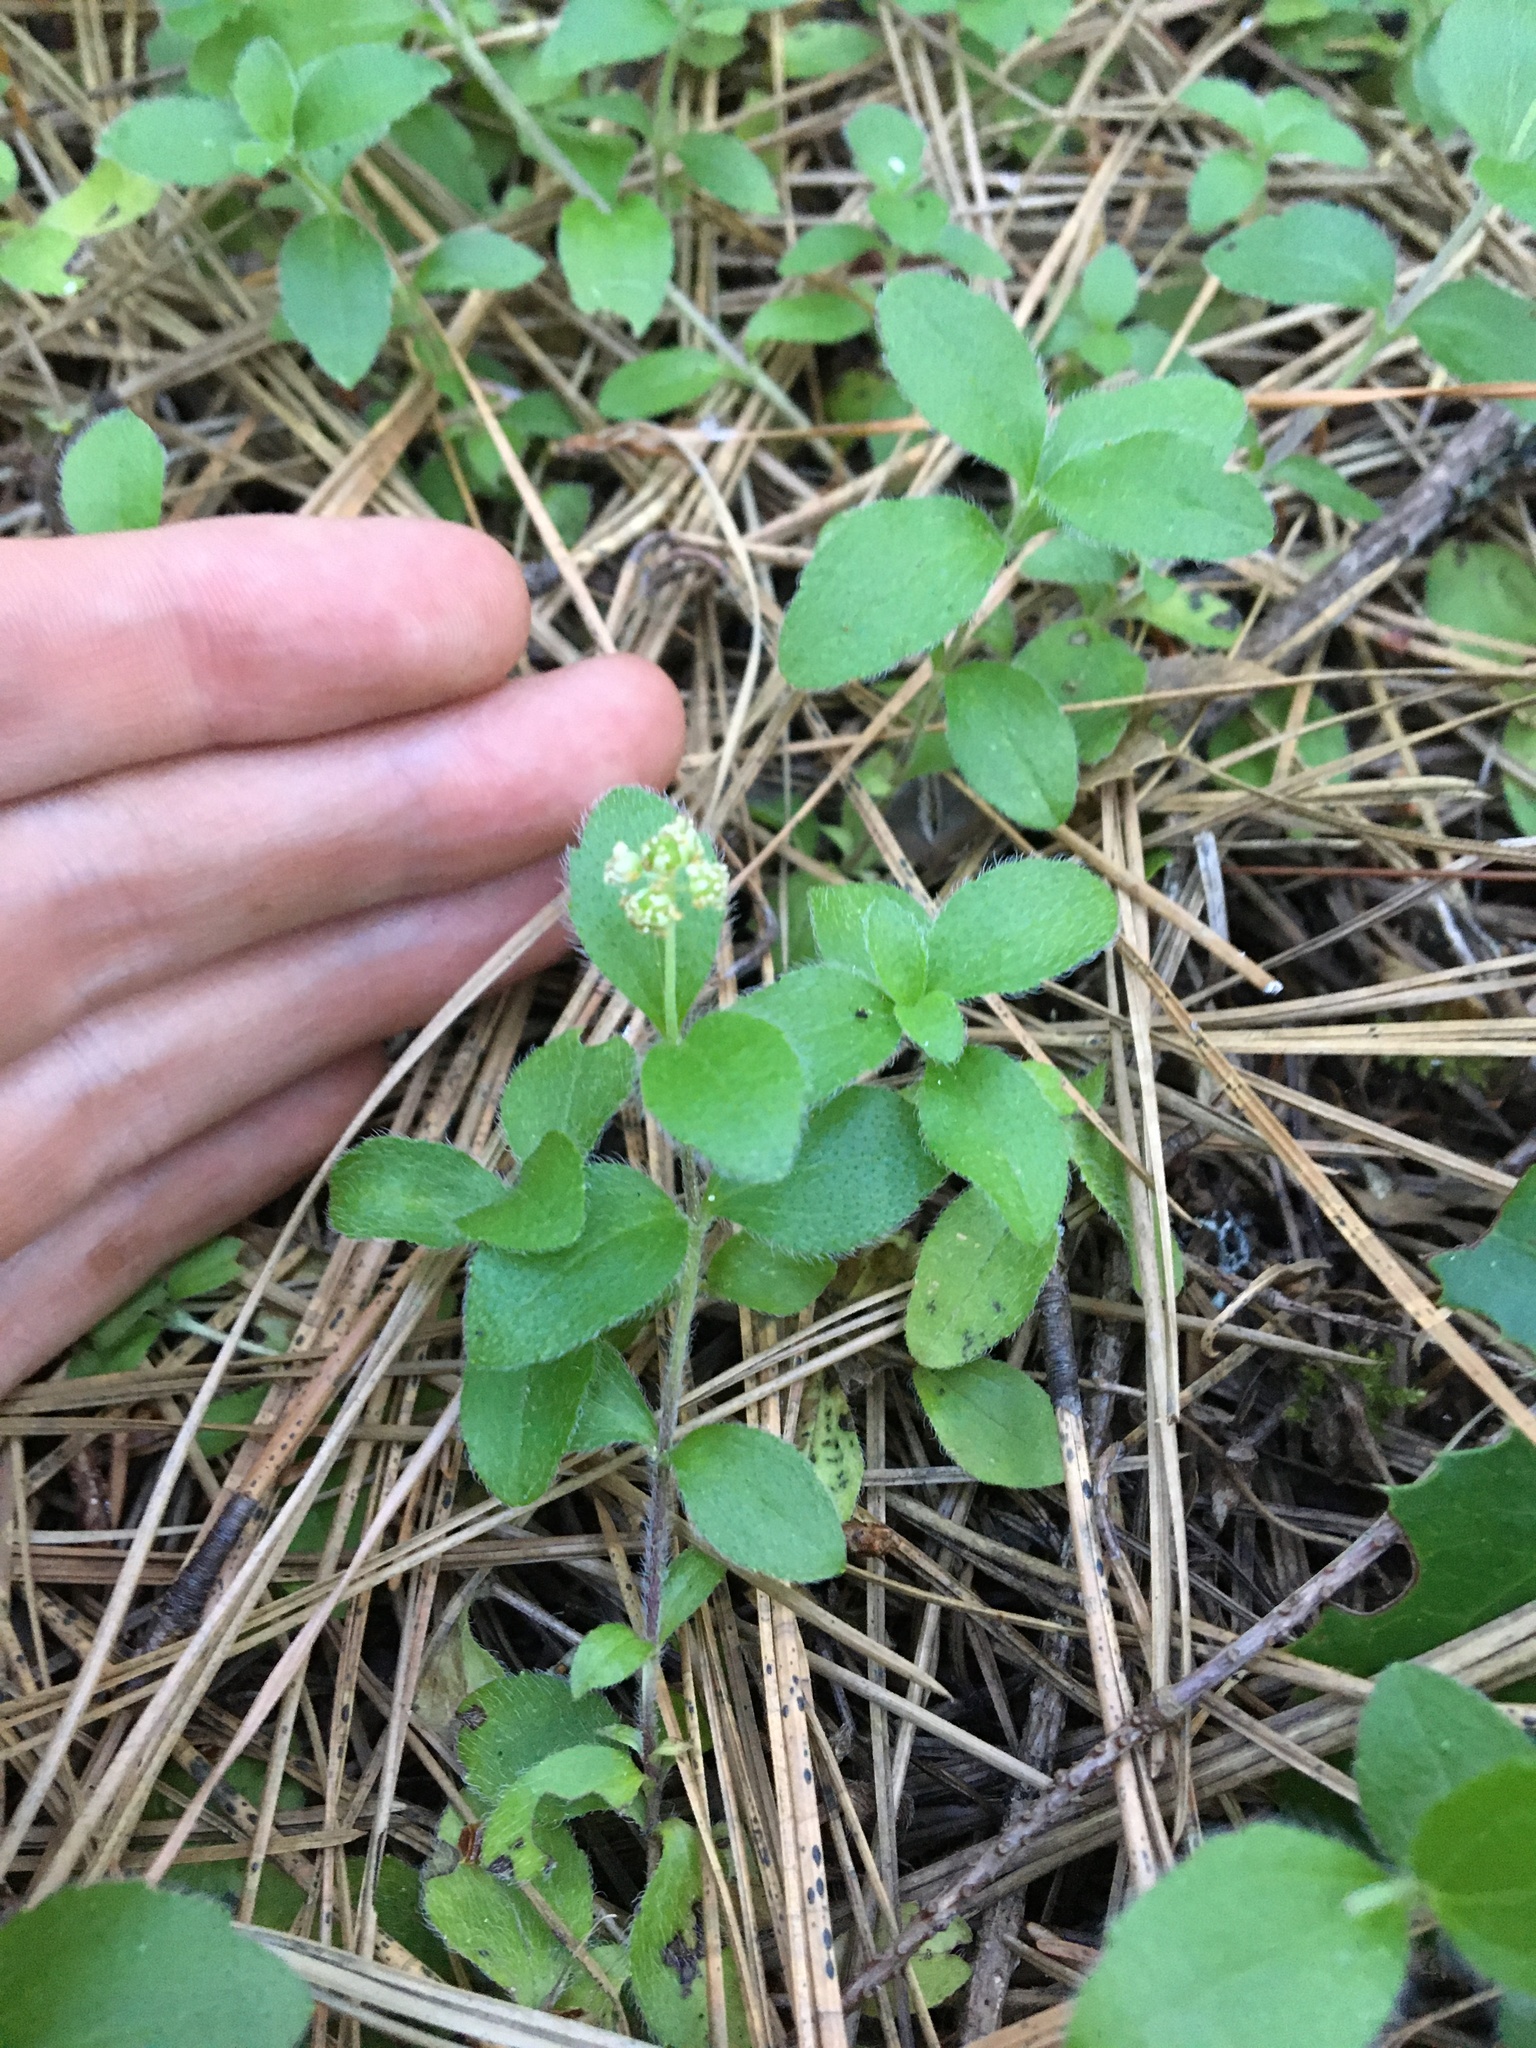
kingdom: Plantae
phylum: Tracheophyta
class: Magnoliopsida
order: Cornales
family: Hydrangeaceae
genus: Whipplea
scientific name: Whipplea modesta
